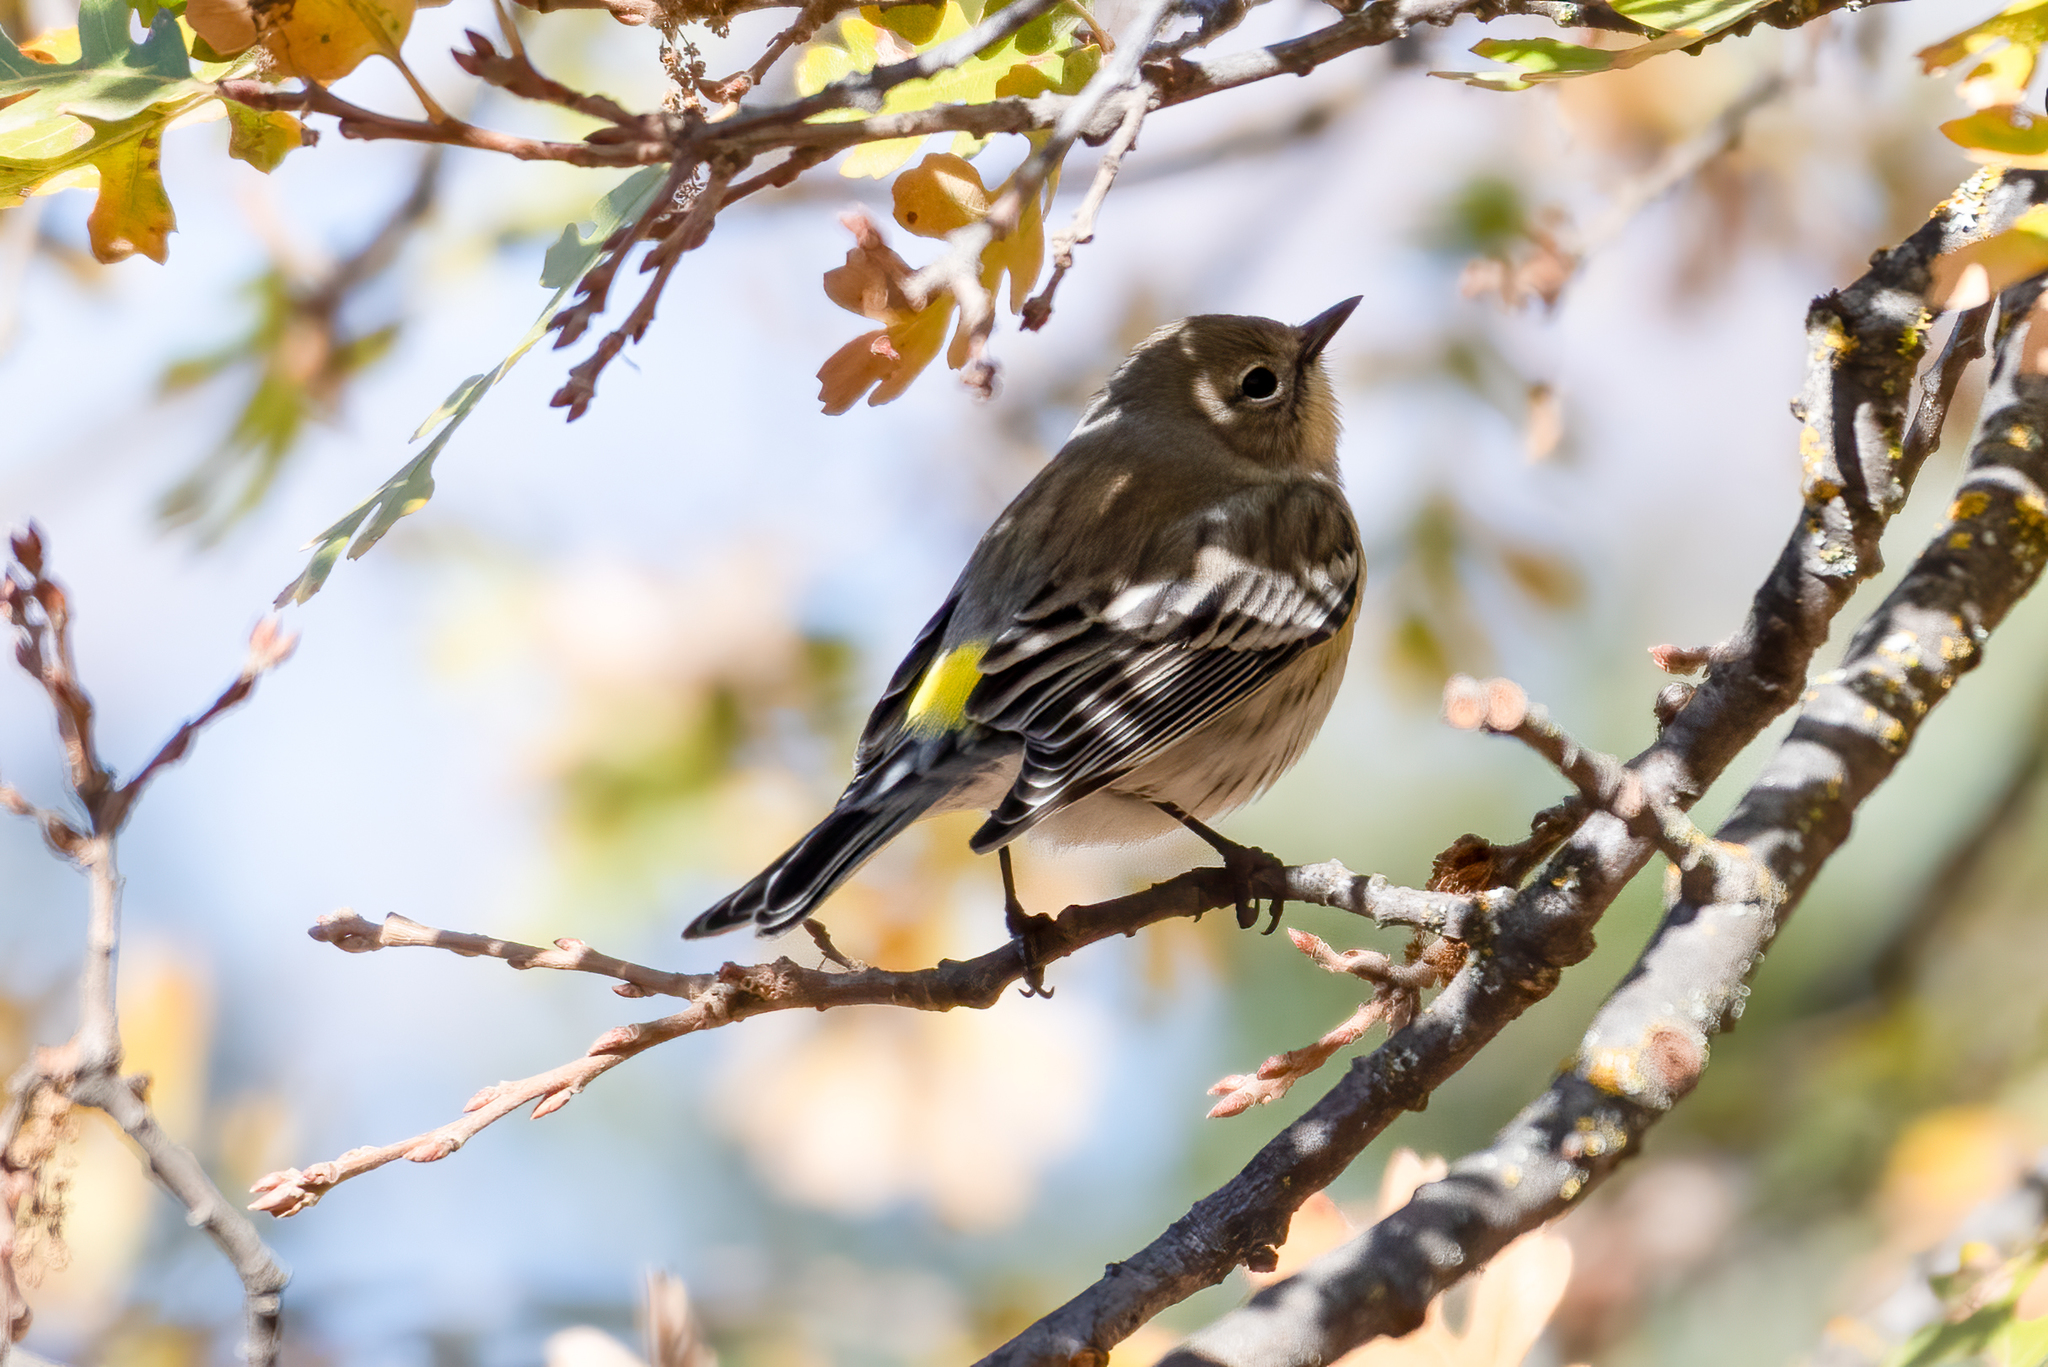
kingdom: Animalia
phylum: Chordata
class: Aves
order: Passeriformes
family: Parulidae
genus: Setophaga
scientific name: Setophaga coronata
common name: Myrtle warbler
